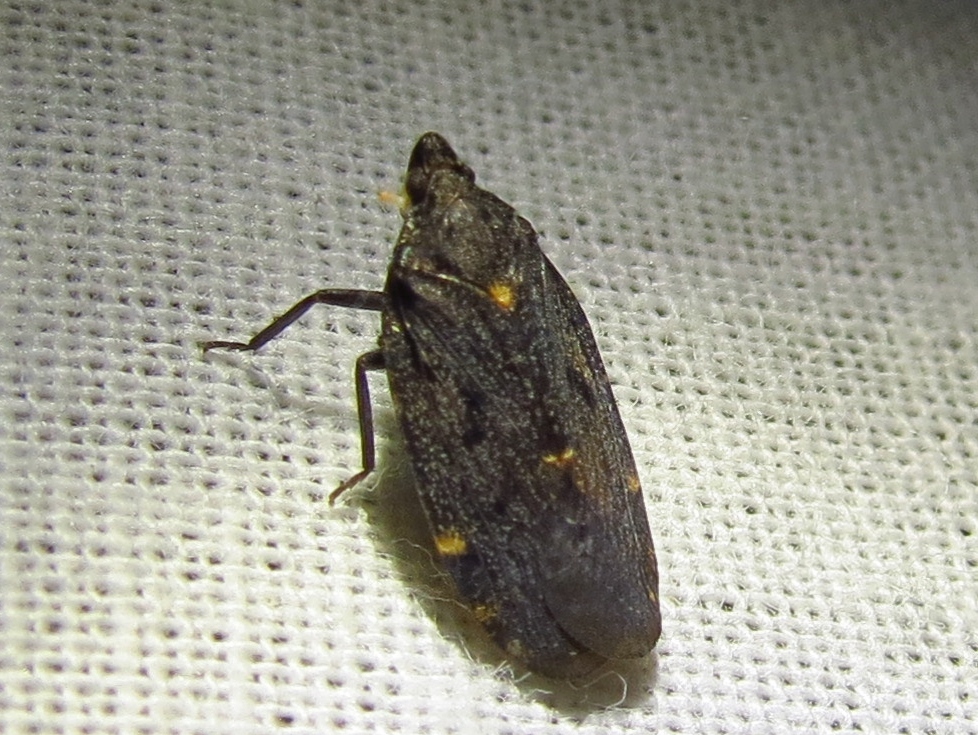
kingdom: Animalia
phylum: Arthropoda
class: Insecta
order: Hemiptera
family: Achilidae
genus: Cixidia
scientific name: Cixidia opaca
